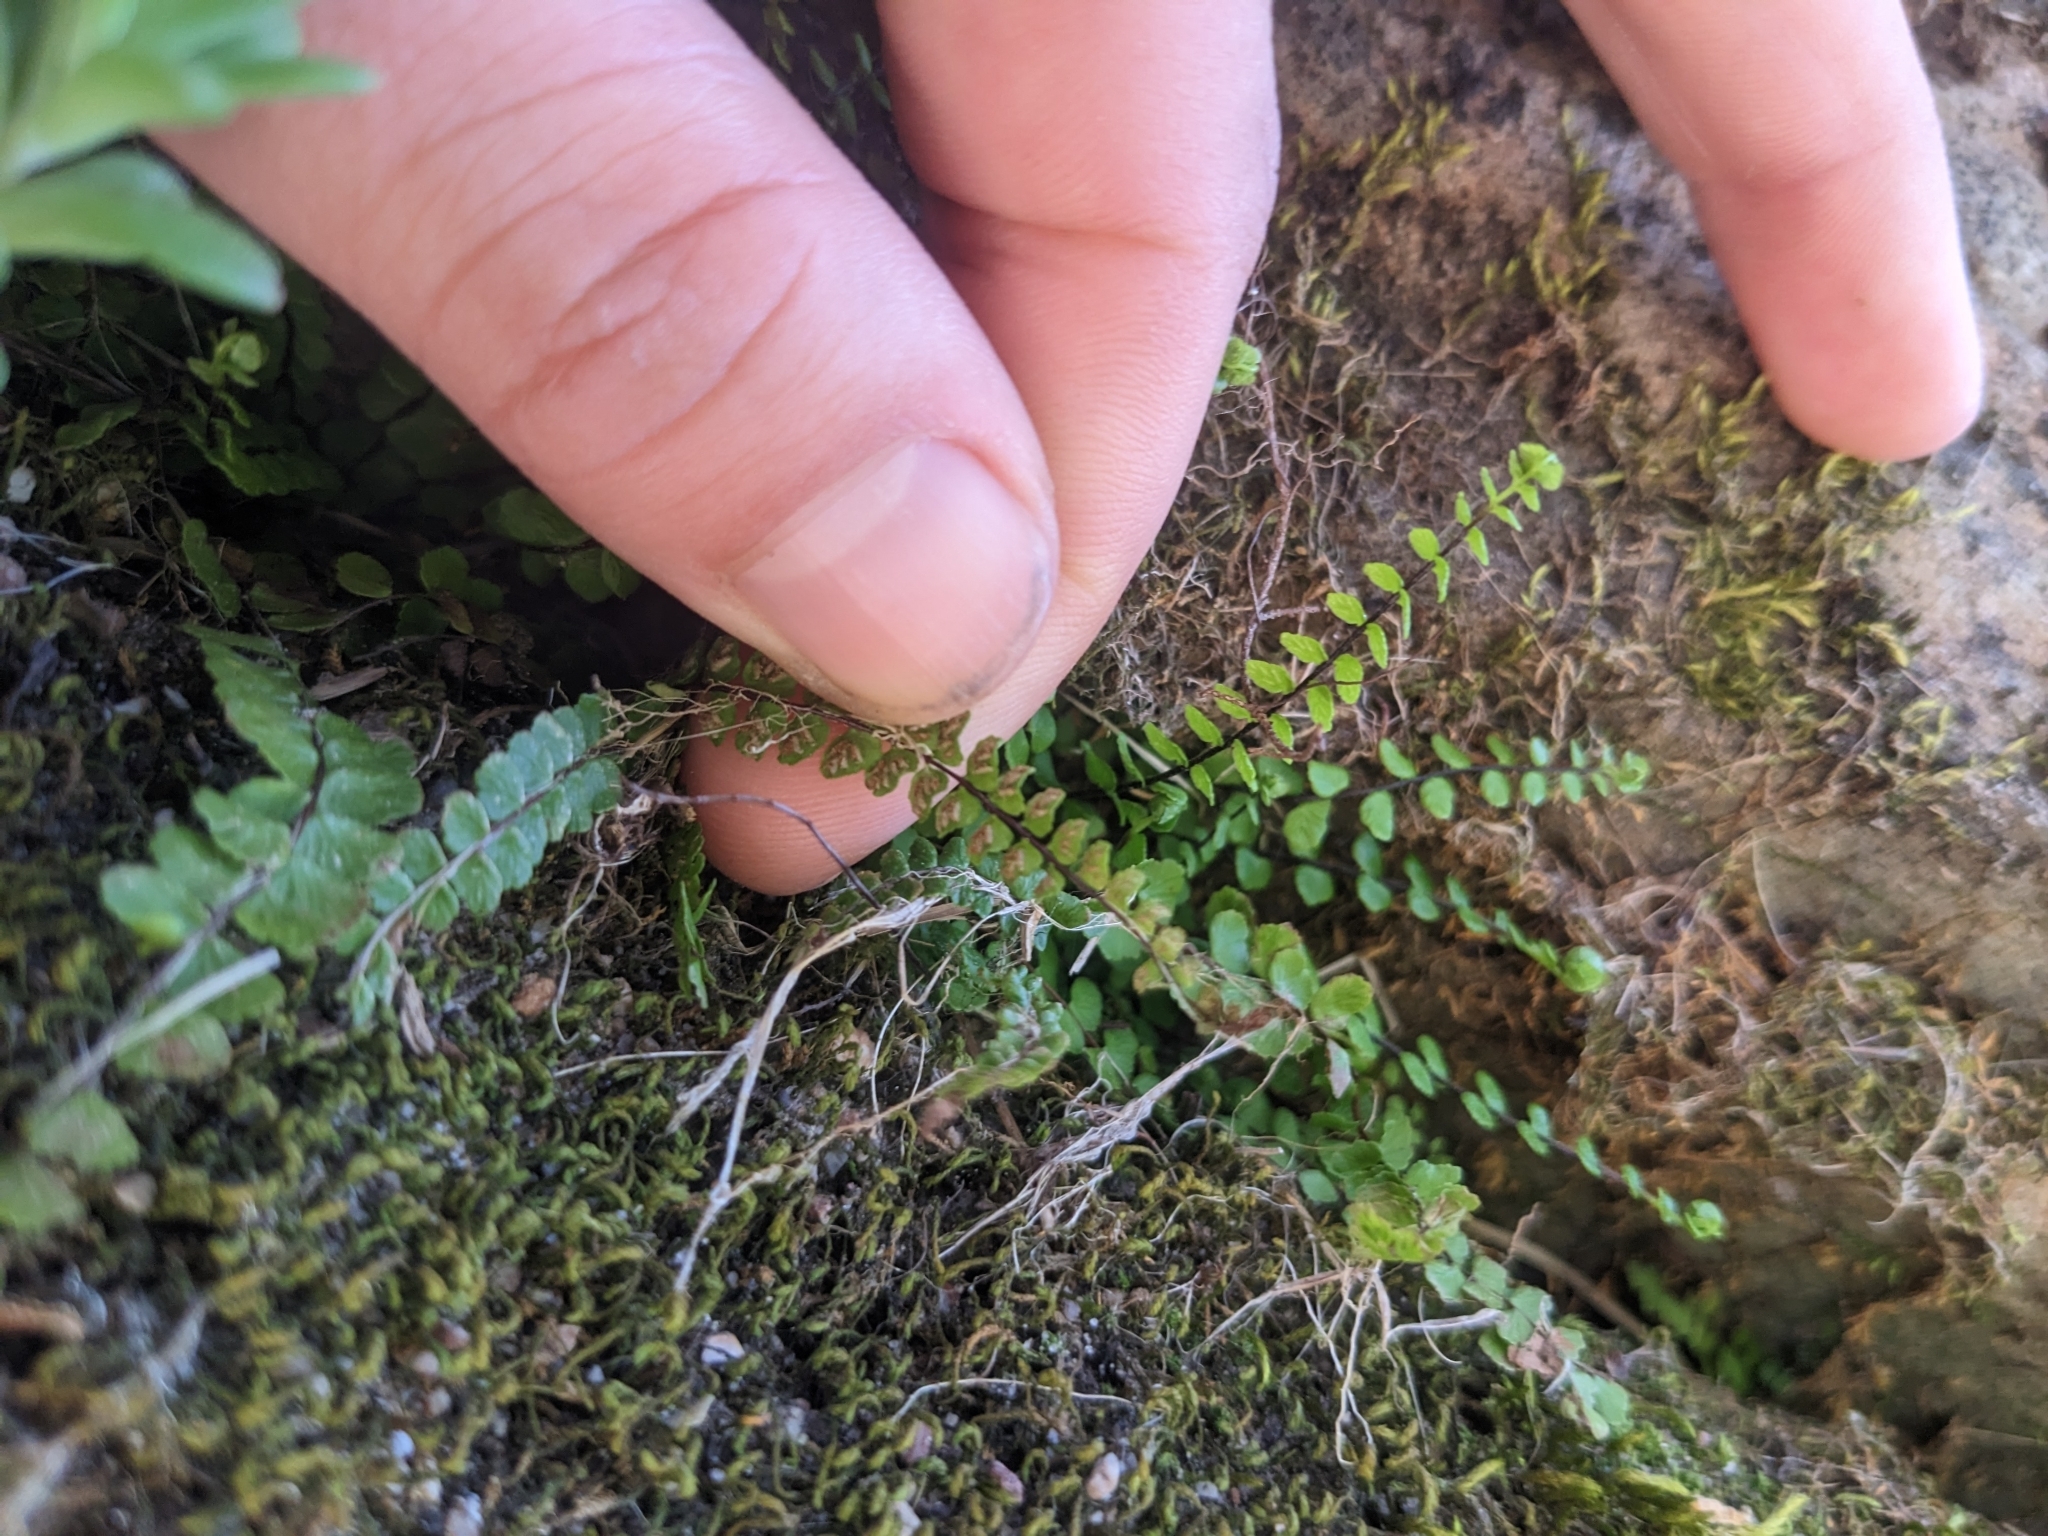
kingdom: Plantae
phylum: Tracheophyta
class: Polypodiopsida
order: Polypodiales
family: Aspleniaceae
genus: Asplenium
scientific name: Asplenium trichomanes
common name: Maidenhair spleenwort
